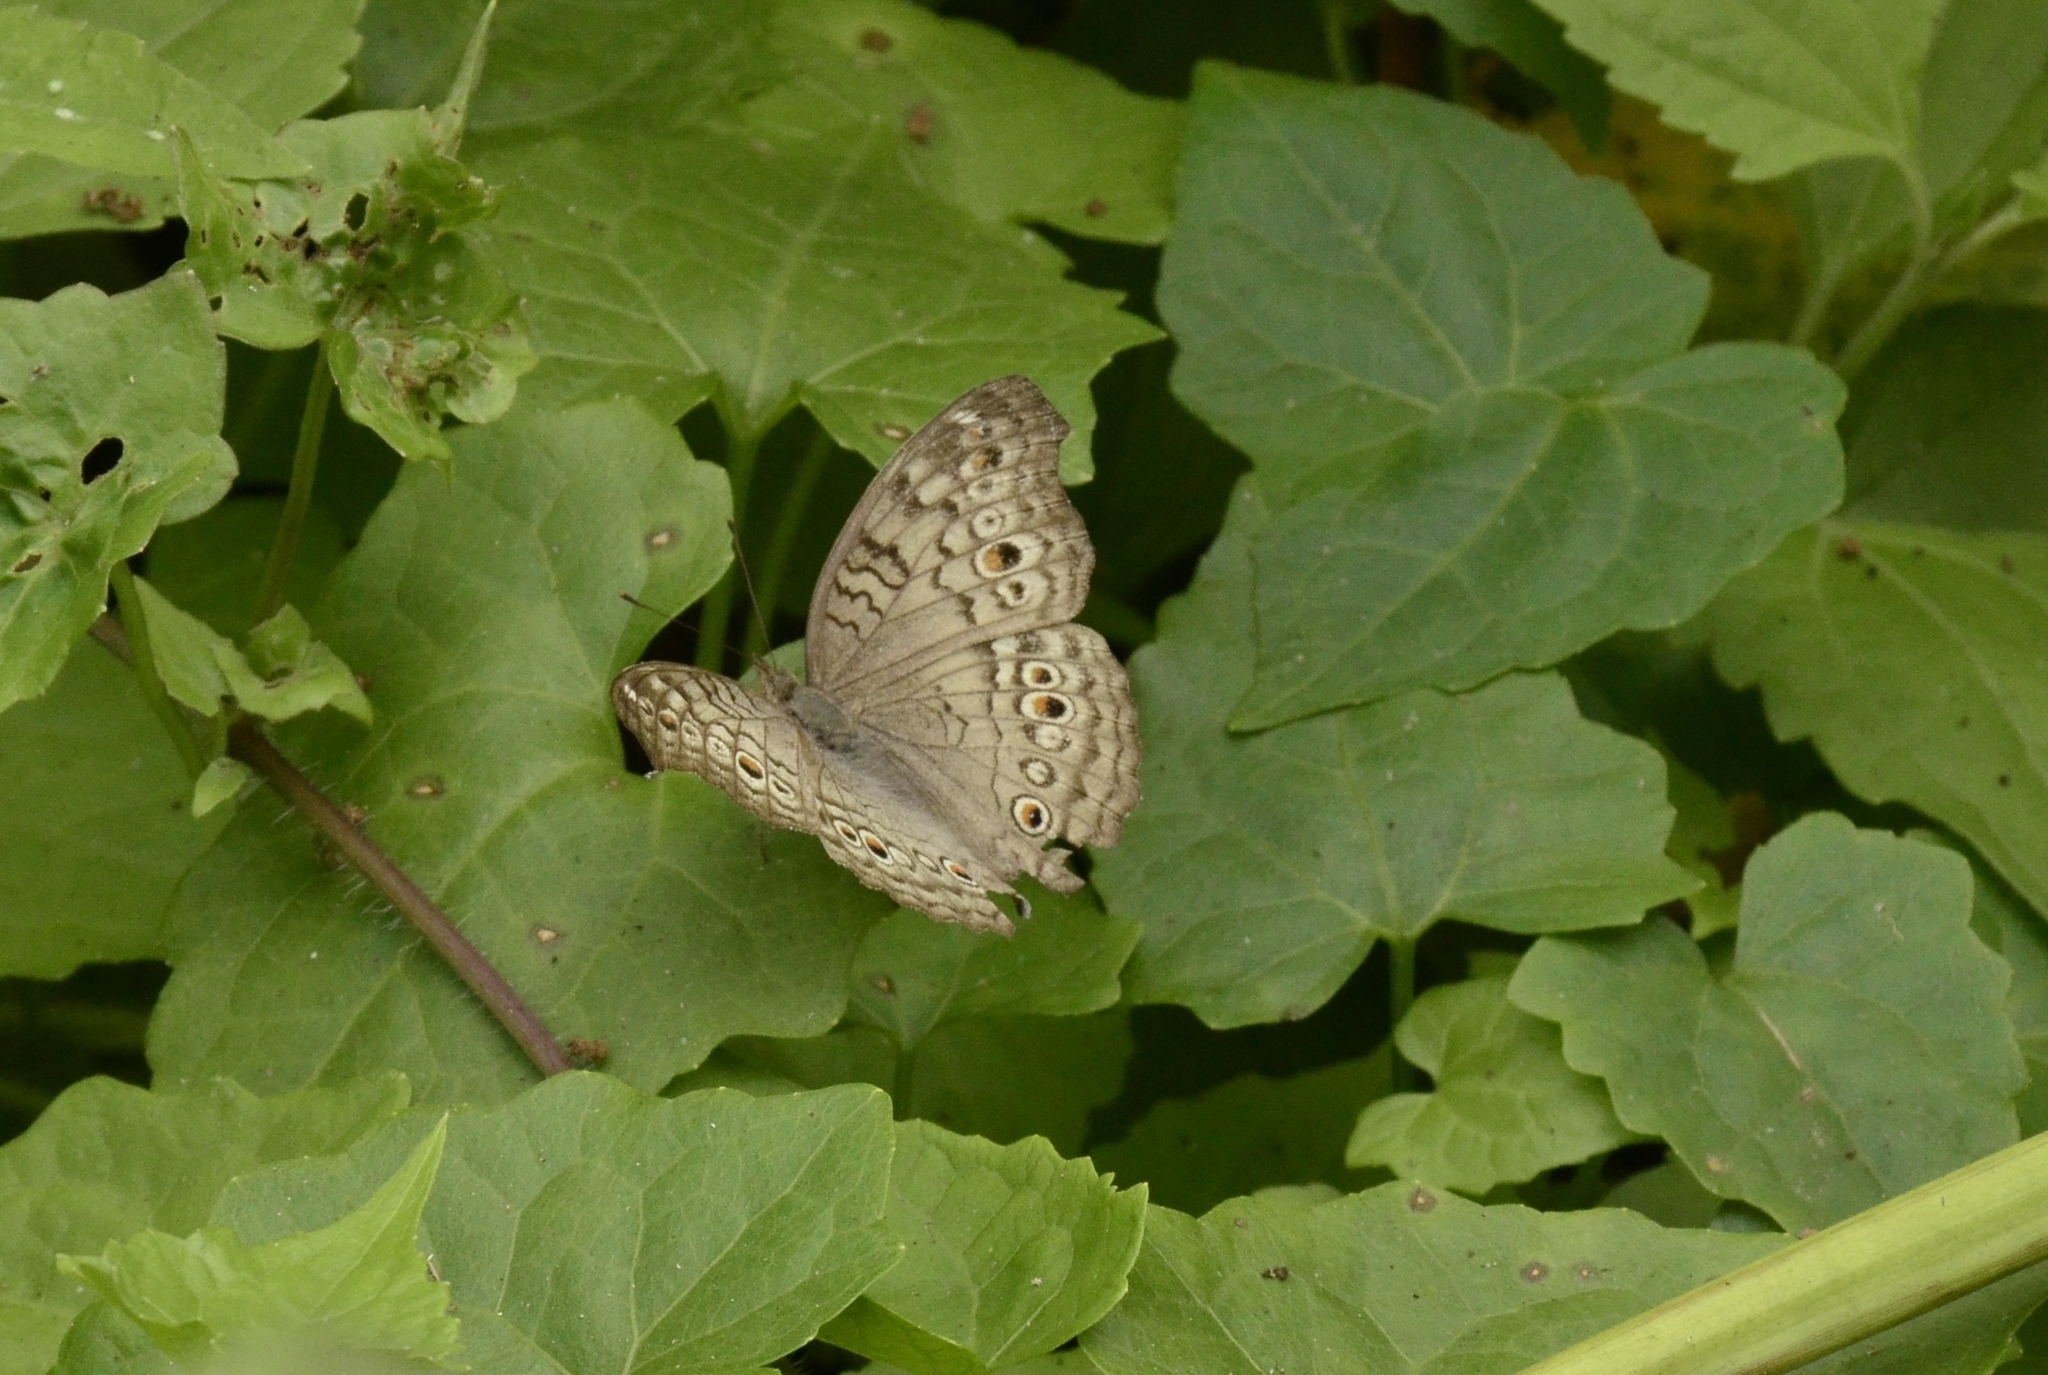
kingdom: Animalia
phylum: Arthropoda
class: Insecta
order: Lepidoptera
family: Nymphalidae
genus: Junonia
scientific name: Junonia atlites
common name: Grey pansy
